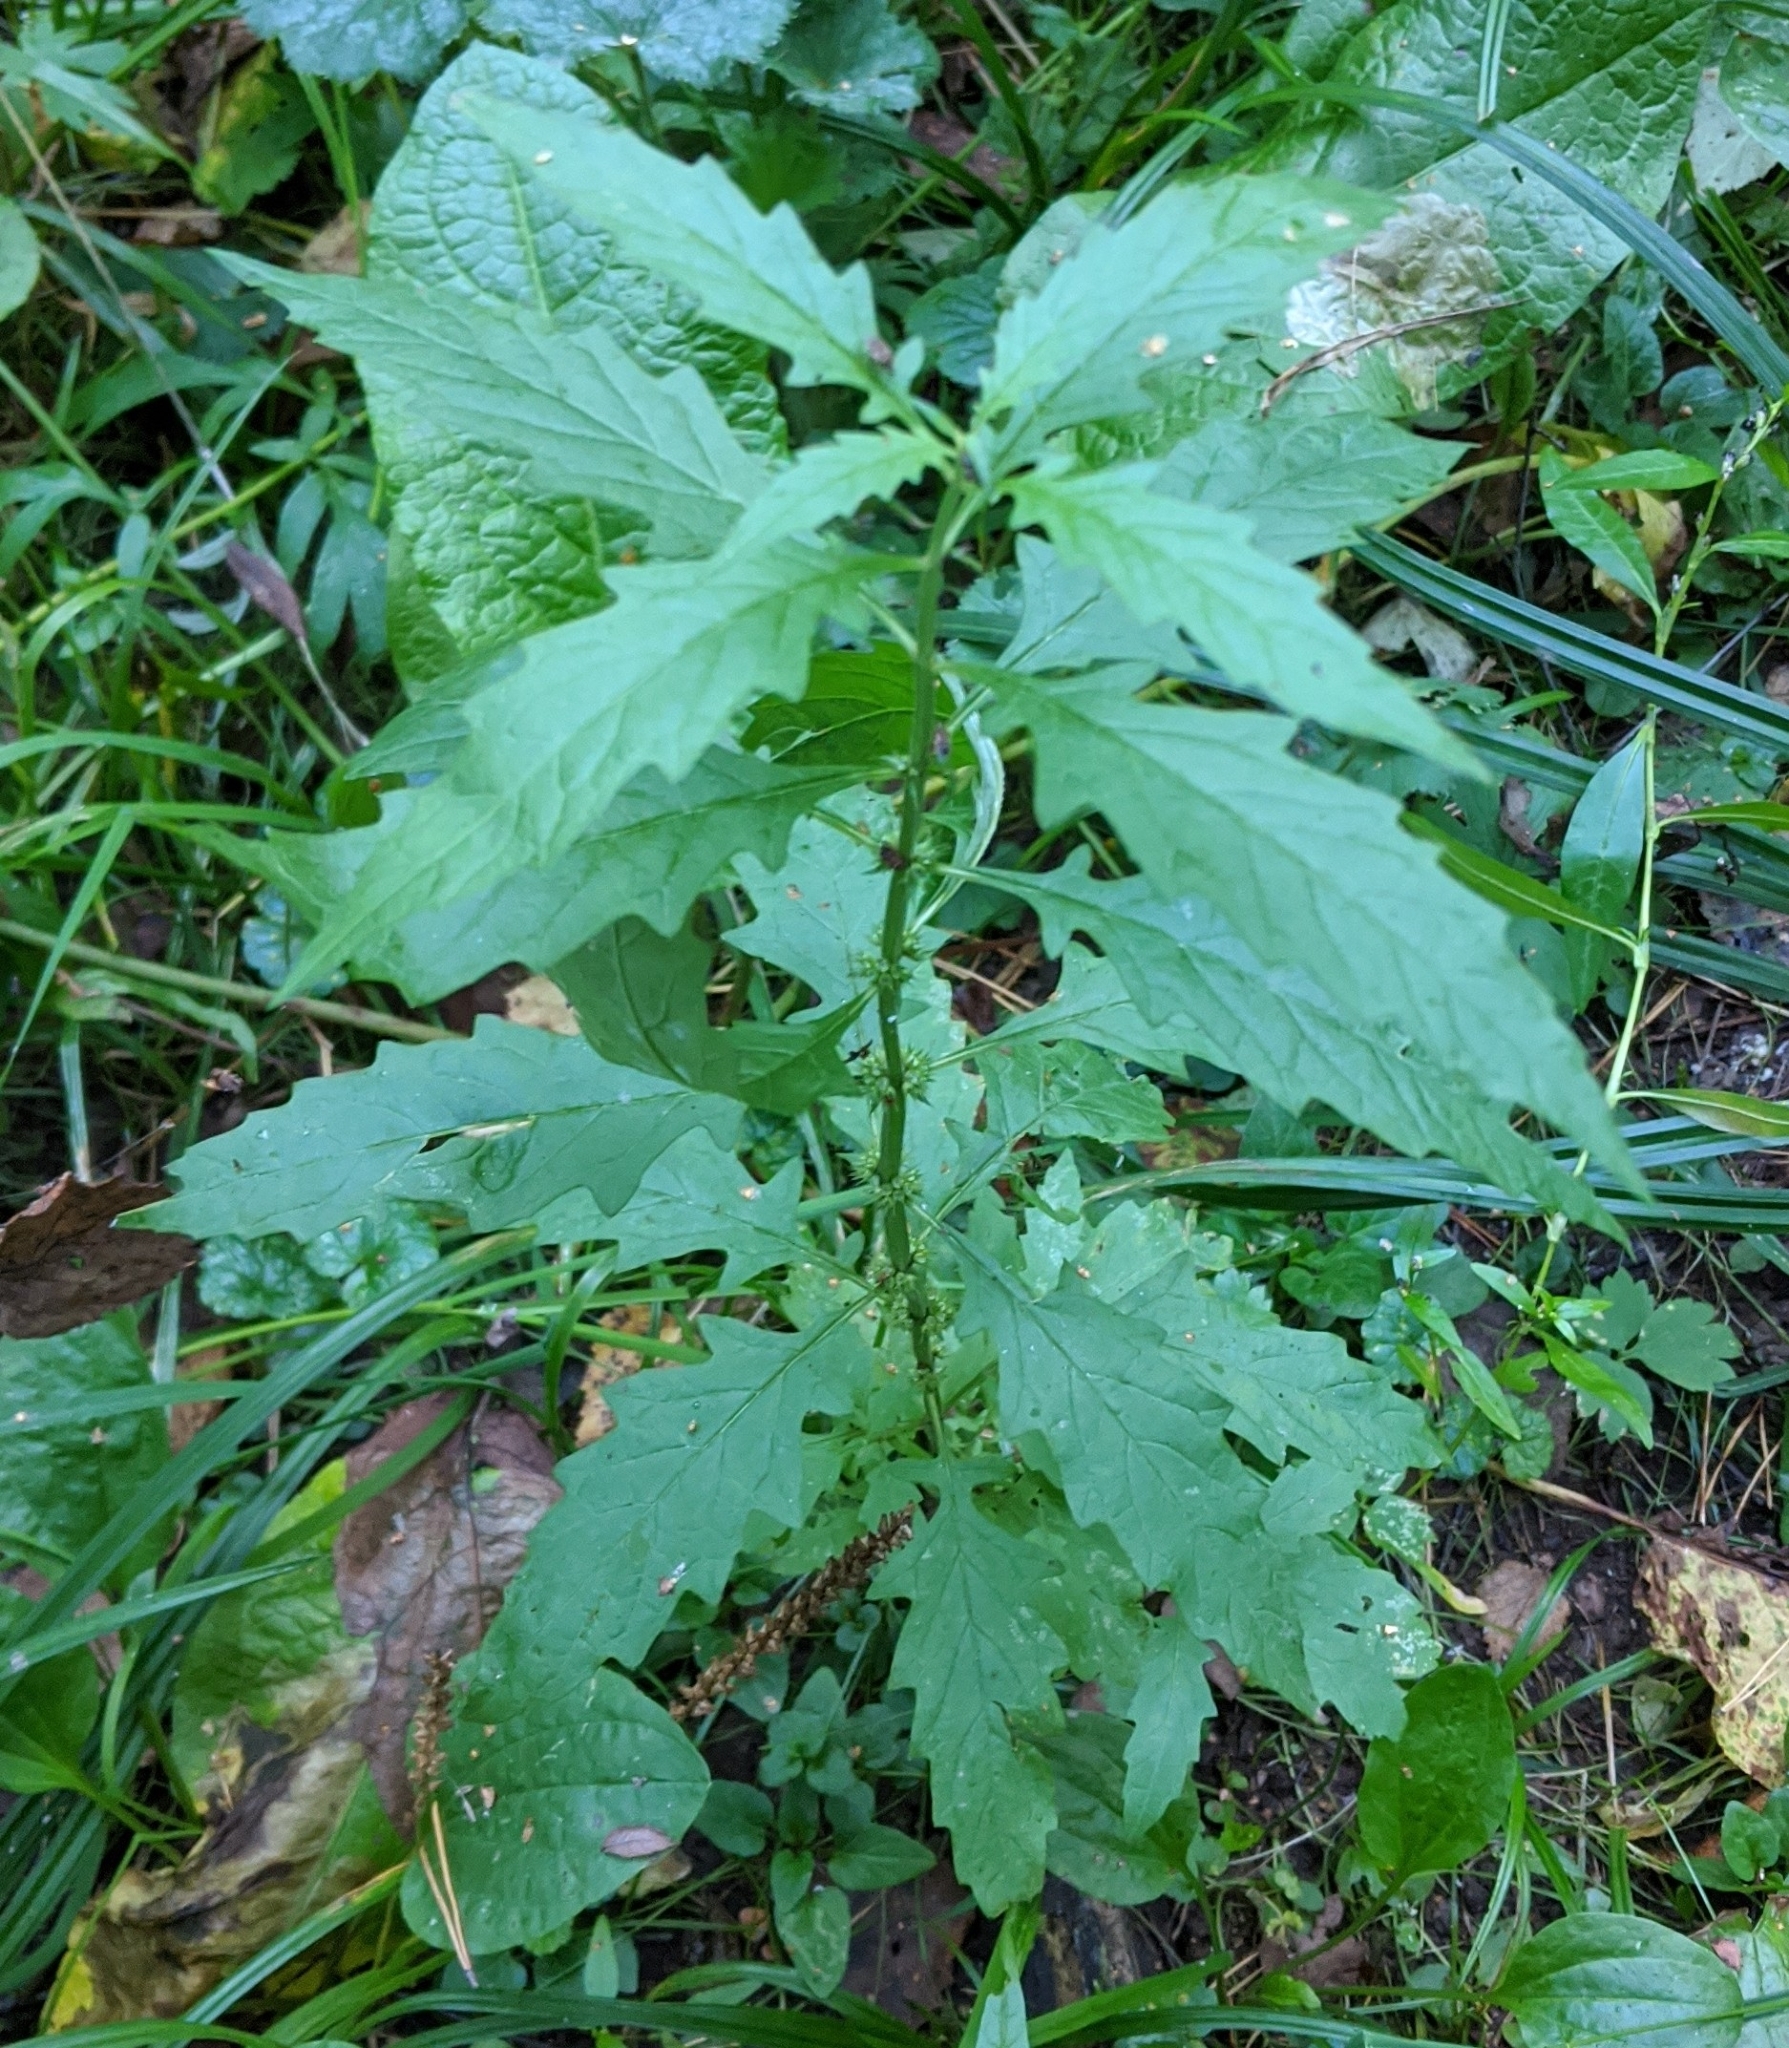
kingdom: Plantae
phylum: Tracheophyta
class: Magnoliopsida
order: Lamiales
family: Lamiaceae
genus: Lycopus
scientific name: Lycopus europaeus
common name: European bugleweed
